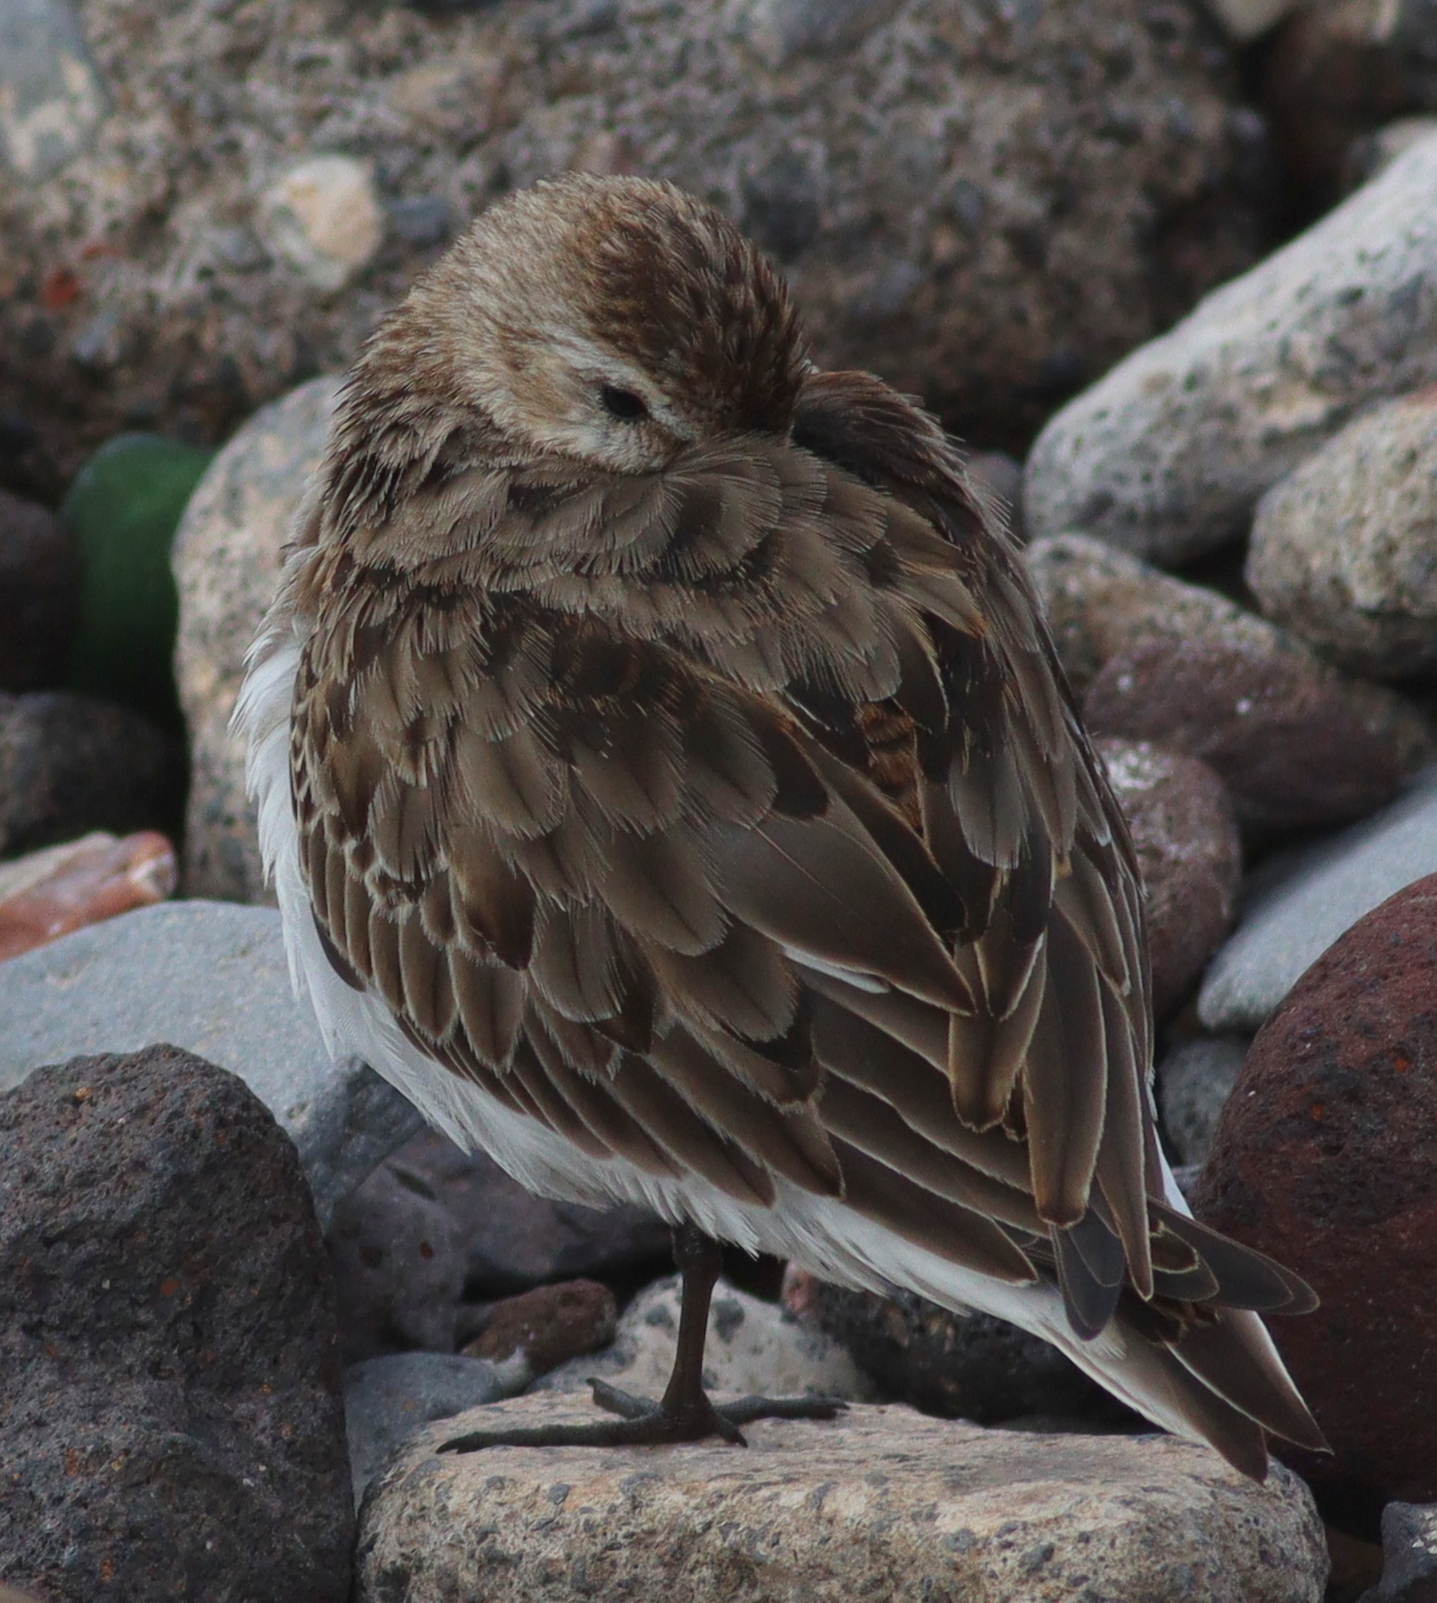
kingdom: Animalia
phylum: Chordata
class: Aves
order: Charadriiformes
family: Scolopacidae
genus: Calidris
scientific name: Calidris alpina
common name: Dunlin
